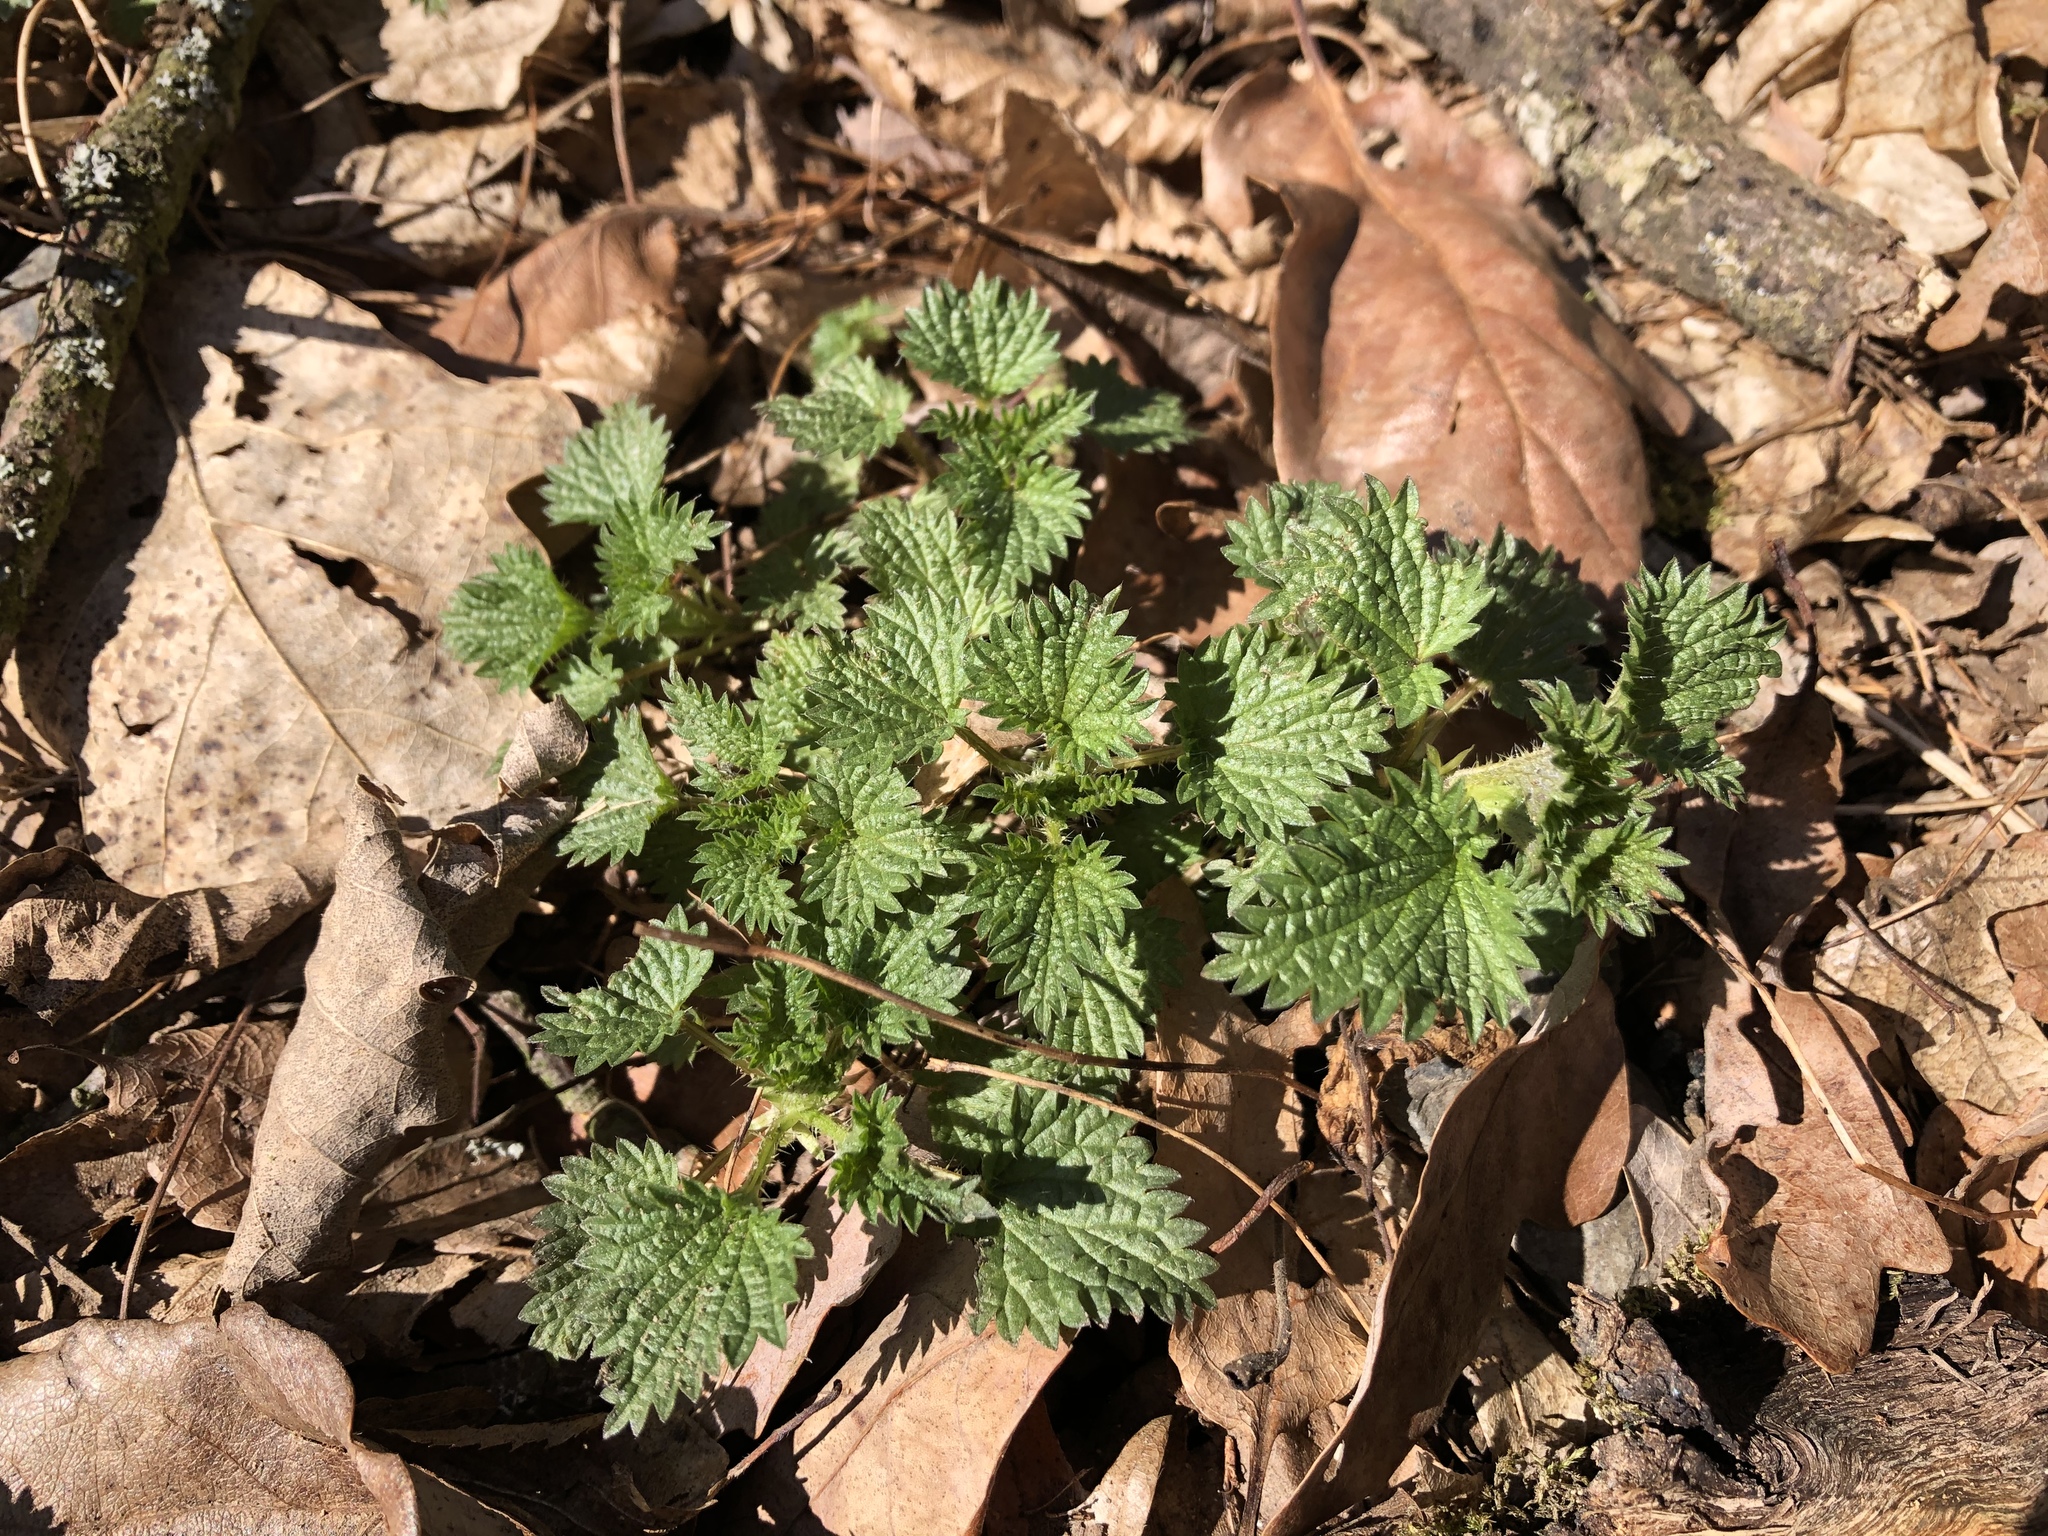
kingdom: Plantae
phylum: Tracheophyta
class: Magnoliopsida
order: Rosales
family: Urticaceae
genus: Urtica
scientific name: Urtica dioica
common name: Common nettle
